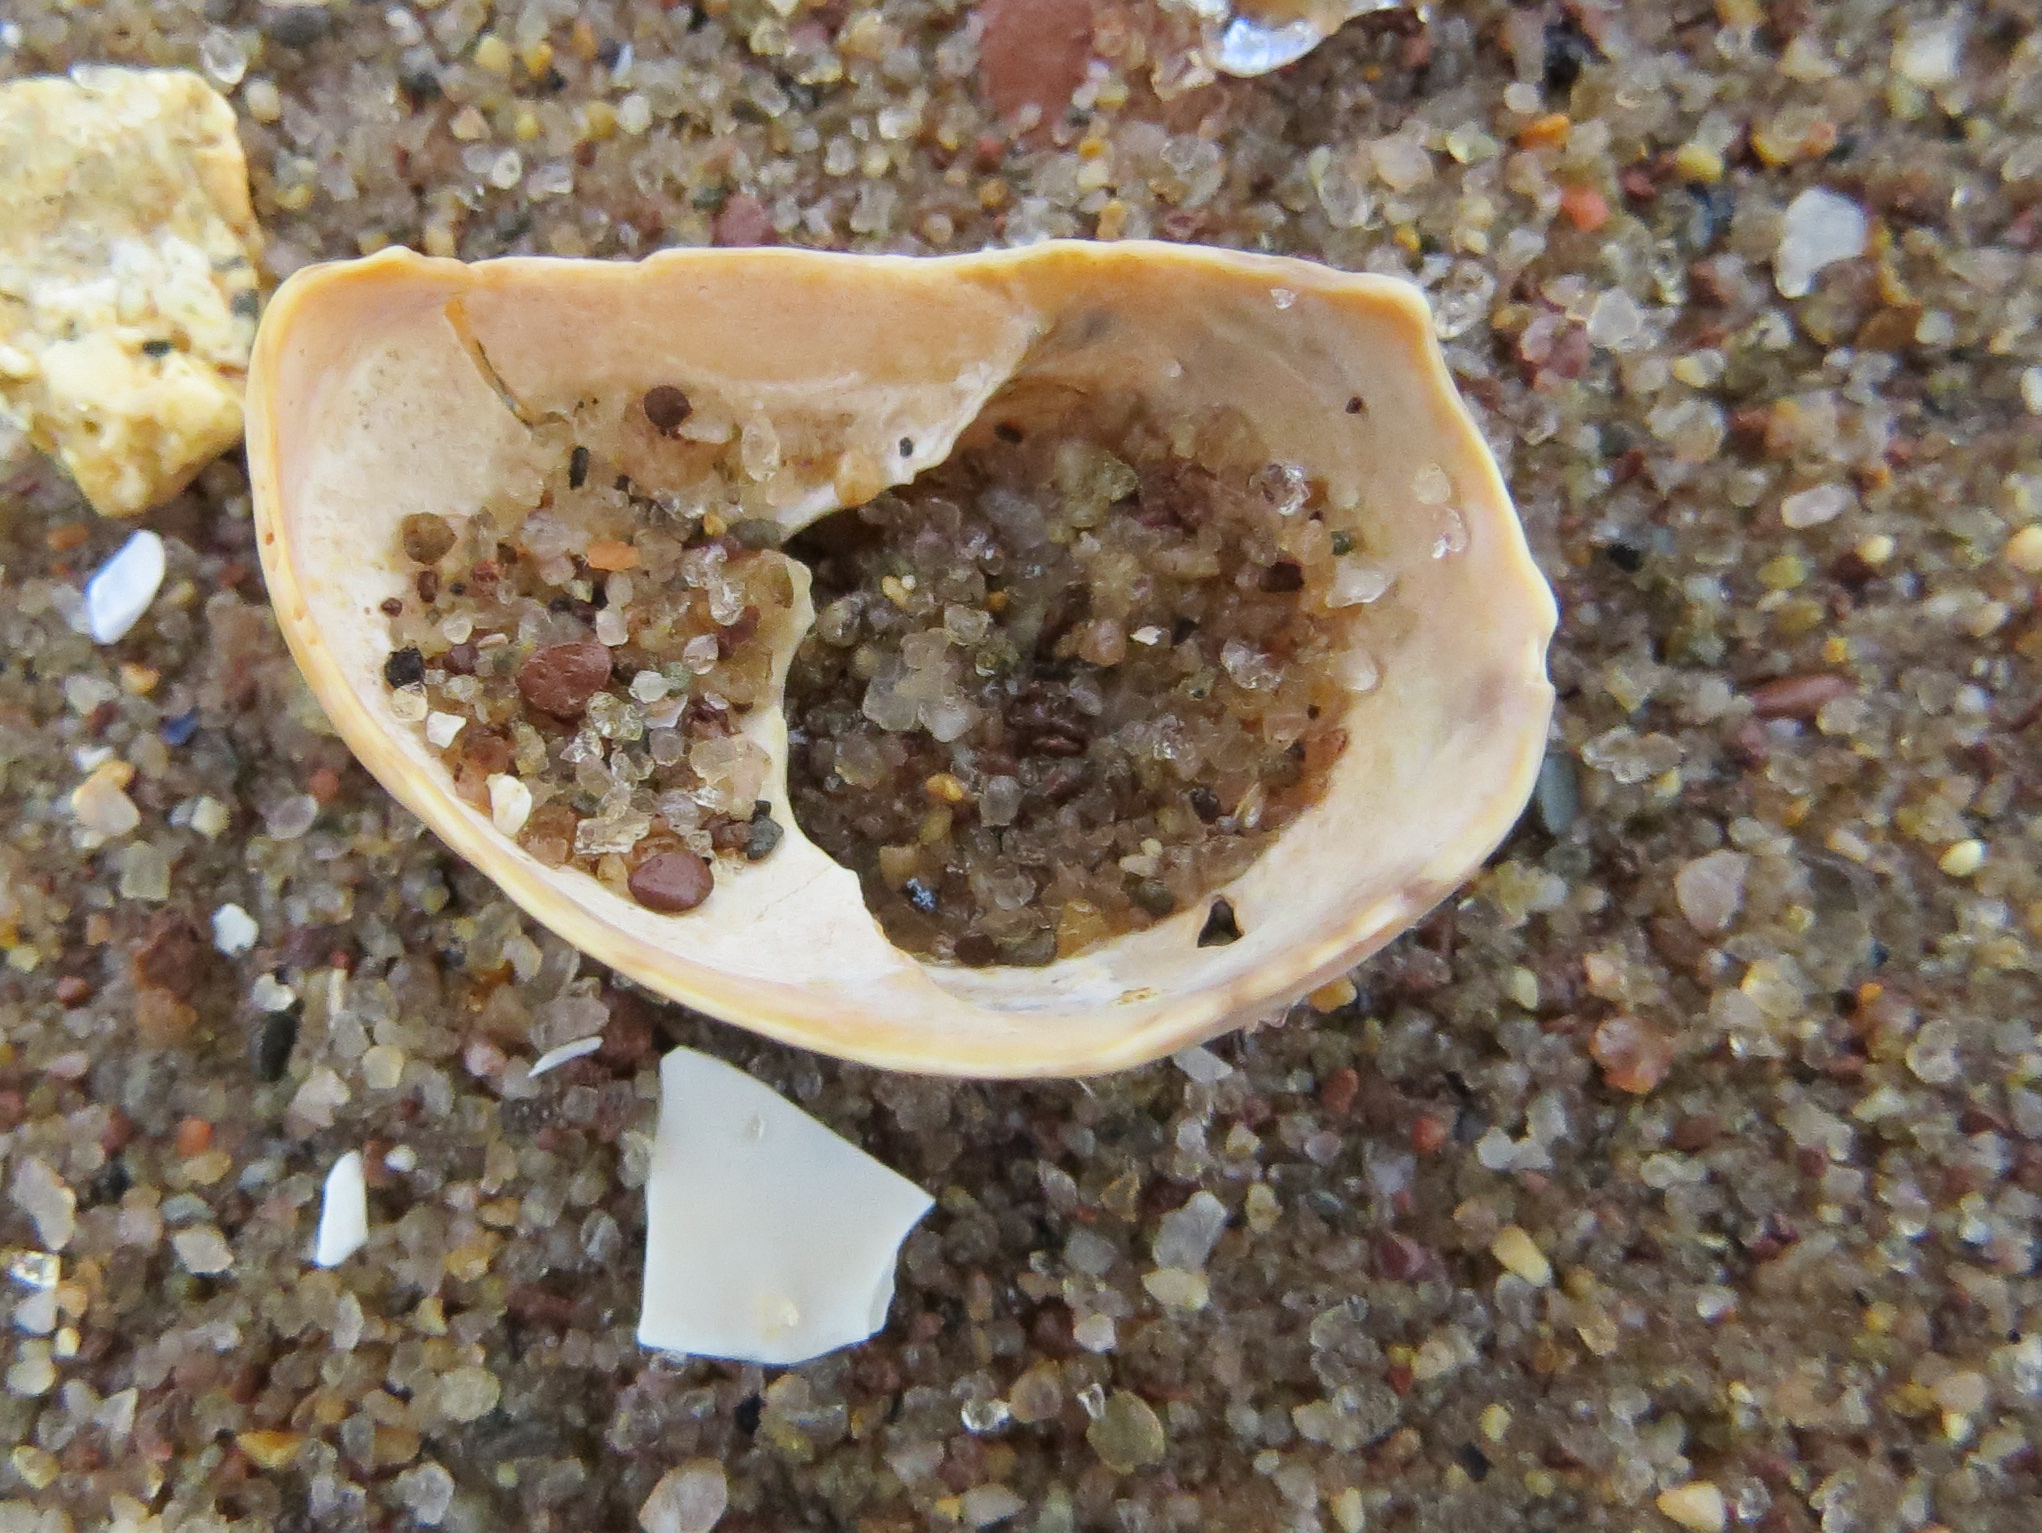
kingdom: Animalia
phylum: Mollusca
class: Gastropoda
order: Littorinimorpha
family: Calyptraeidae
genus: Crepidula
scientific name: Crepidula fornicata
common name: Slipper limpet
